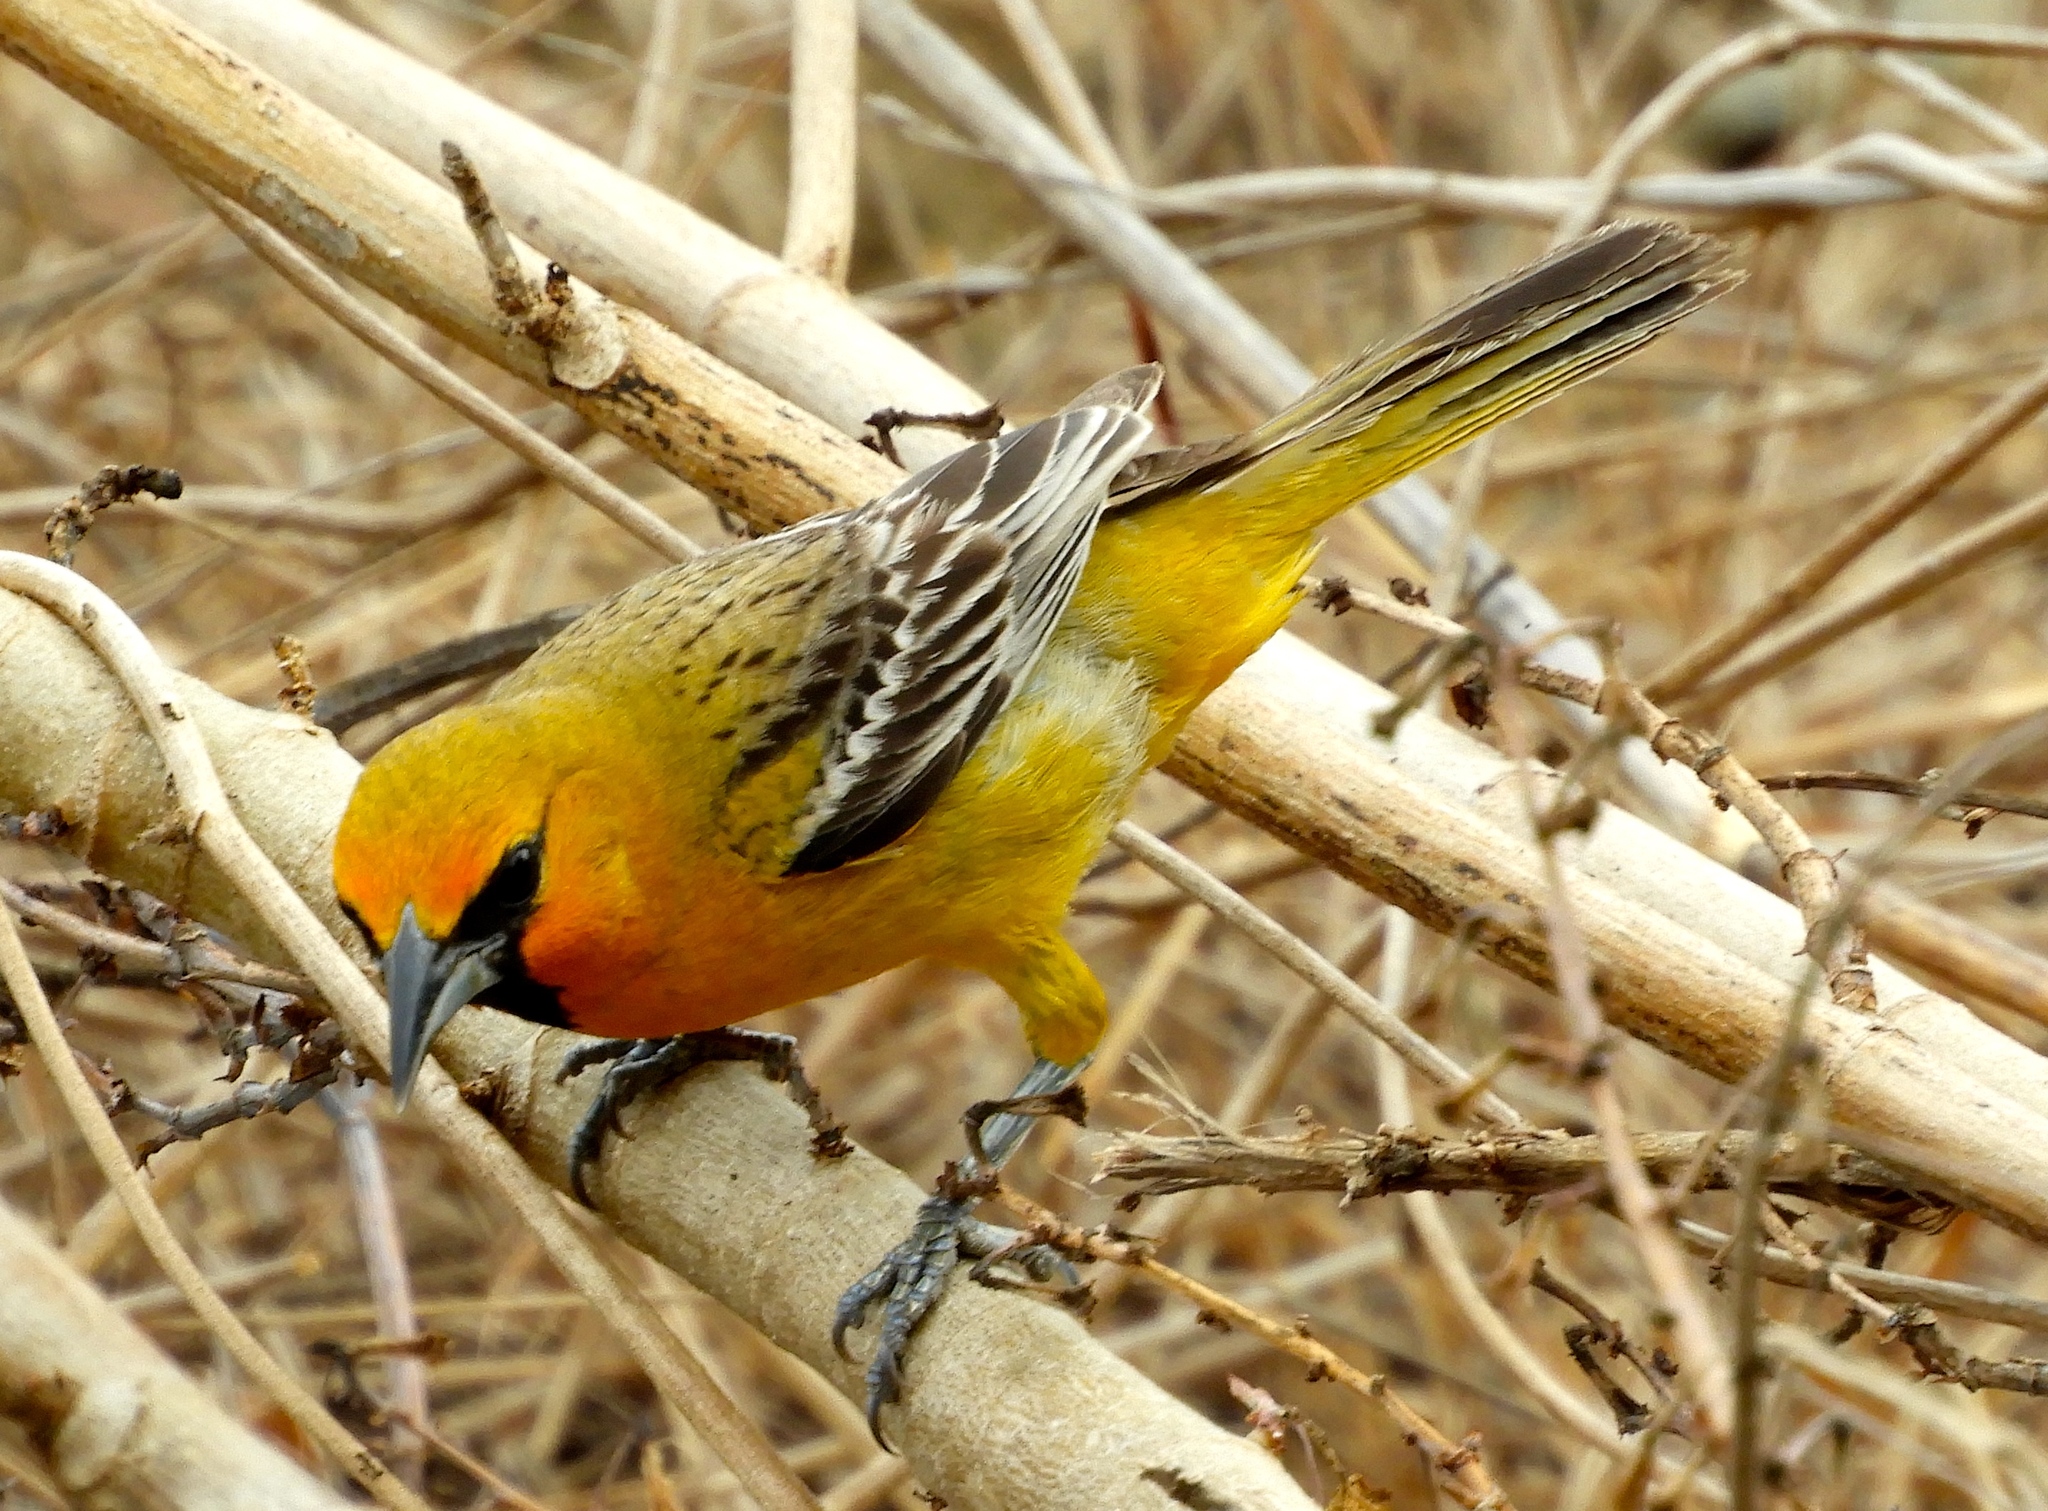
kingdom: Animalia
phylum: Chordata
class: Aves
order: Passeriformes
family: Icteridae
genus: Icterus
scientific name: Icterus pustulatus
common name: Streak-backed oriole
